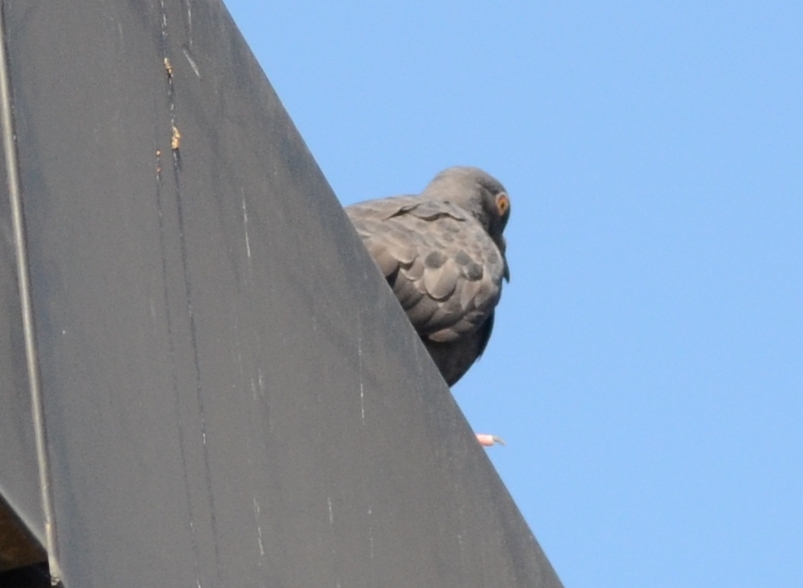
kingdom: Animalia
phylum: Chordata
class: Aves
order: Columbiformes
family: Columbidae
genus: Columba
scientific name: Columba livia
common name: Rock pigeon
